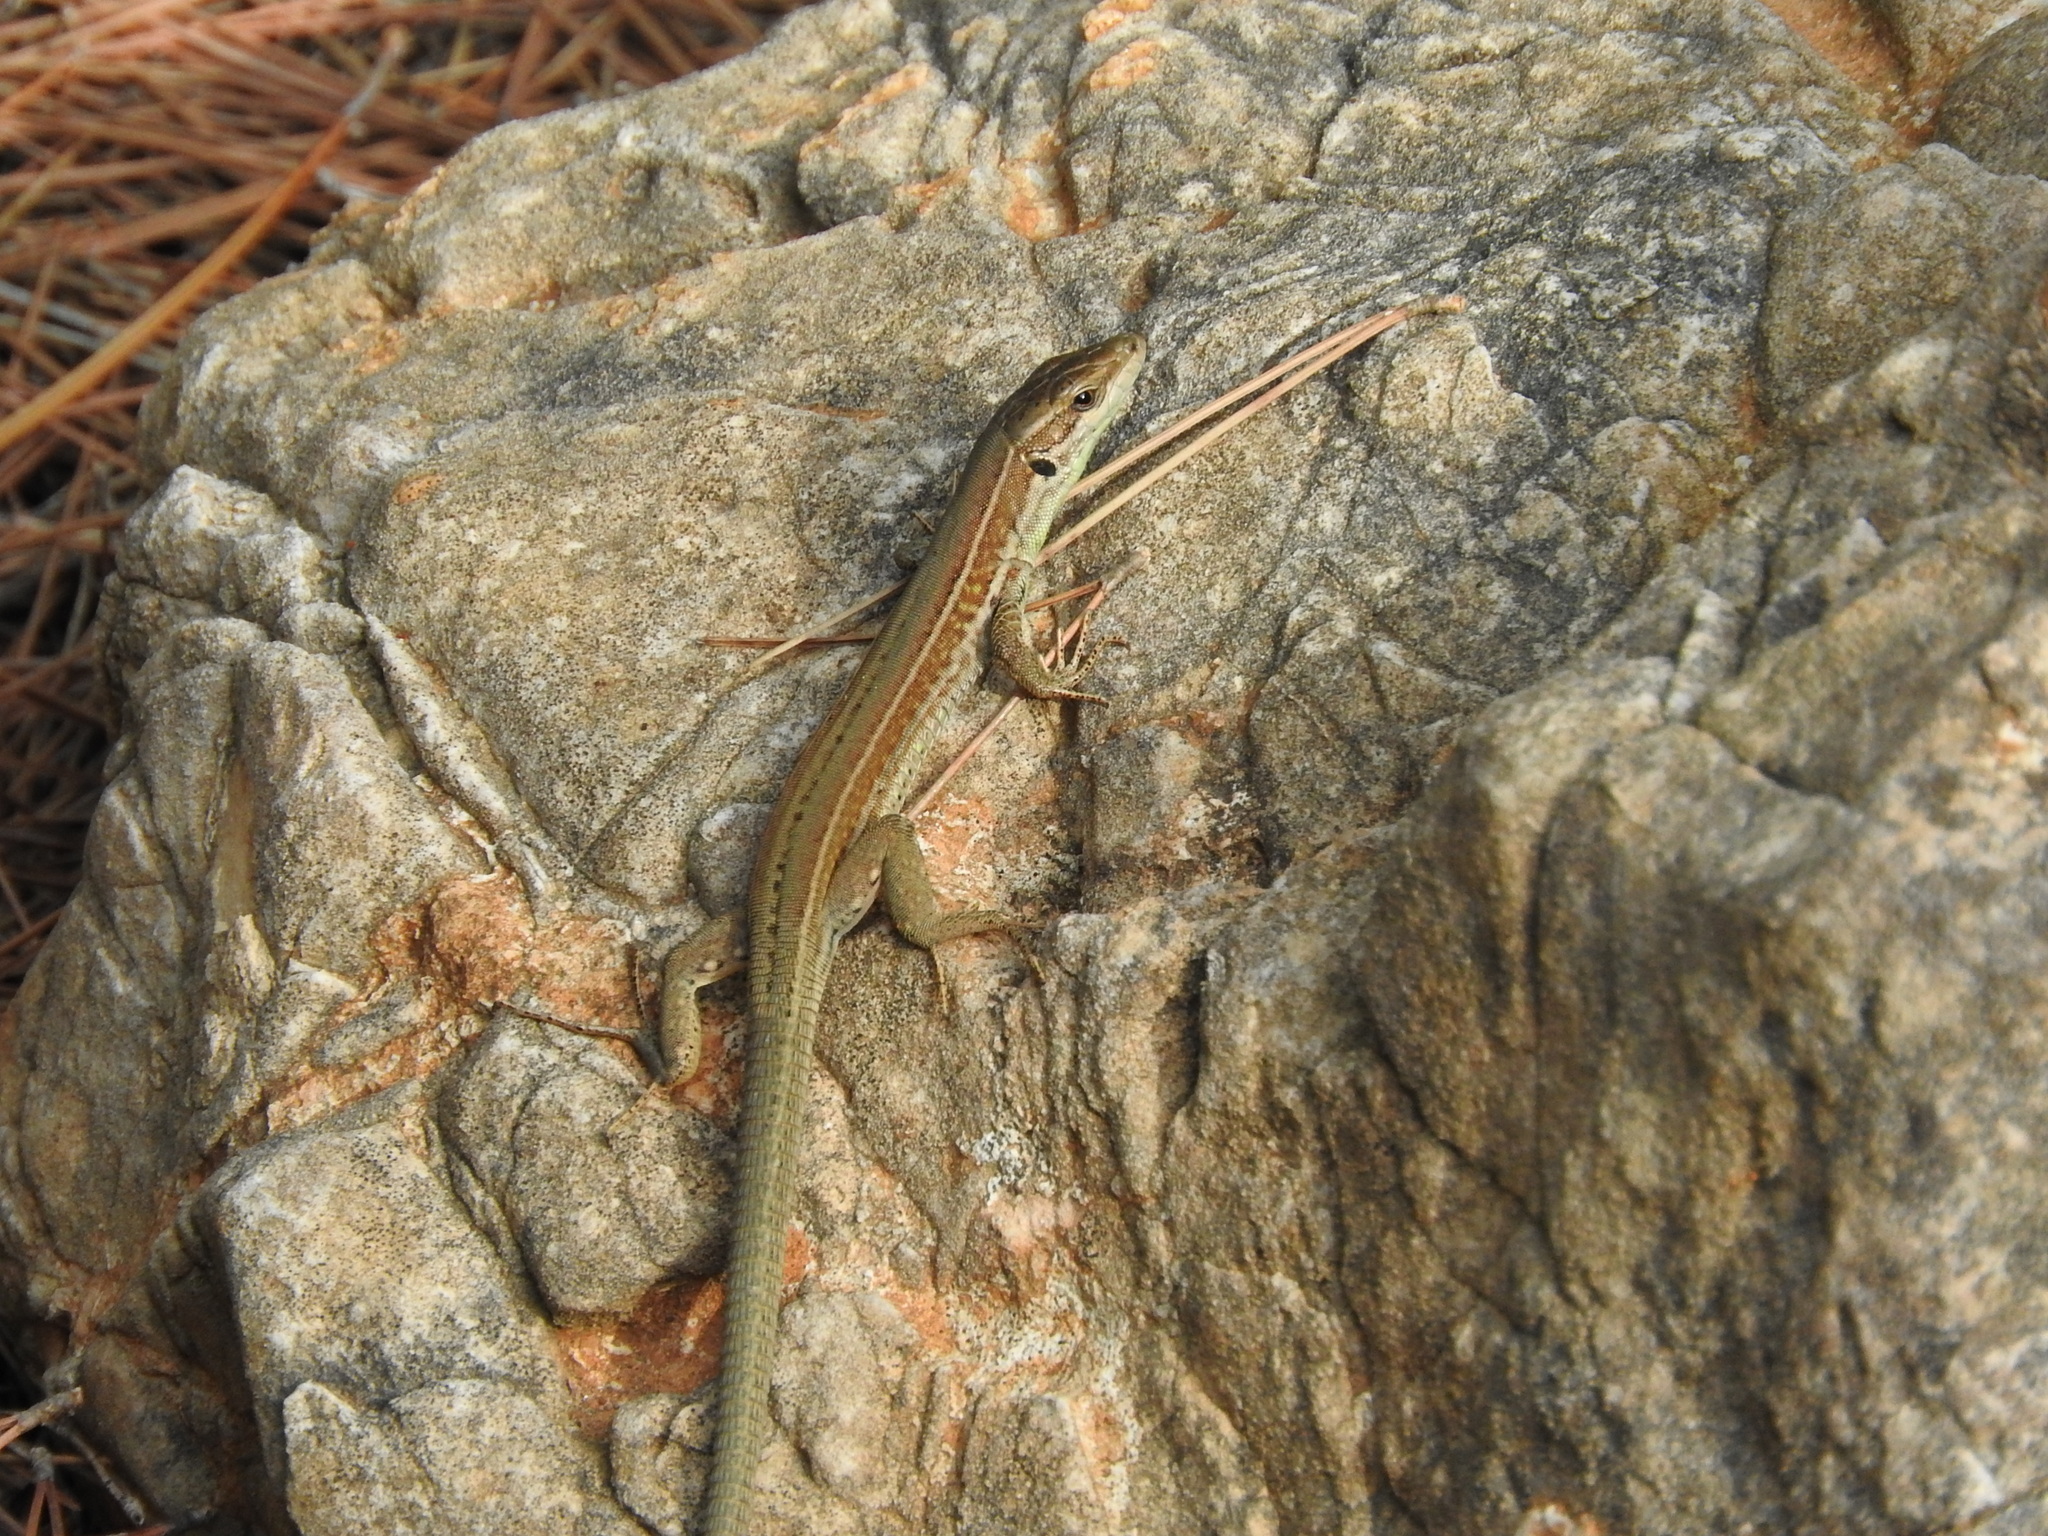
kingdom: Animalia
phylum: Chordata
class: Squamata
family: Lacertidae
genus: Podarcis
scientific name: Podarcis waglerianus
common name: Sicilian wall lizard
